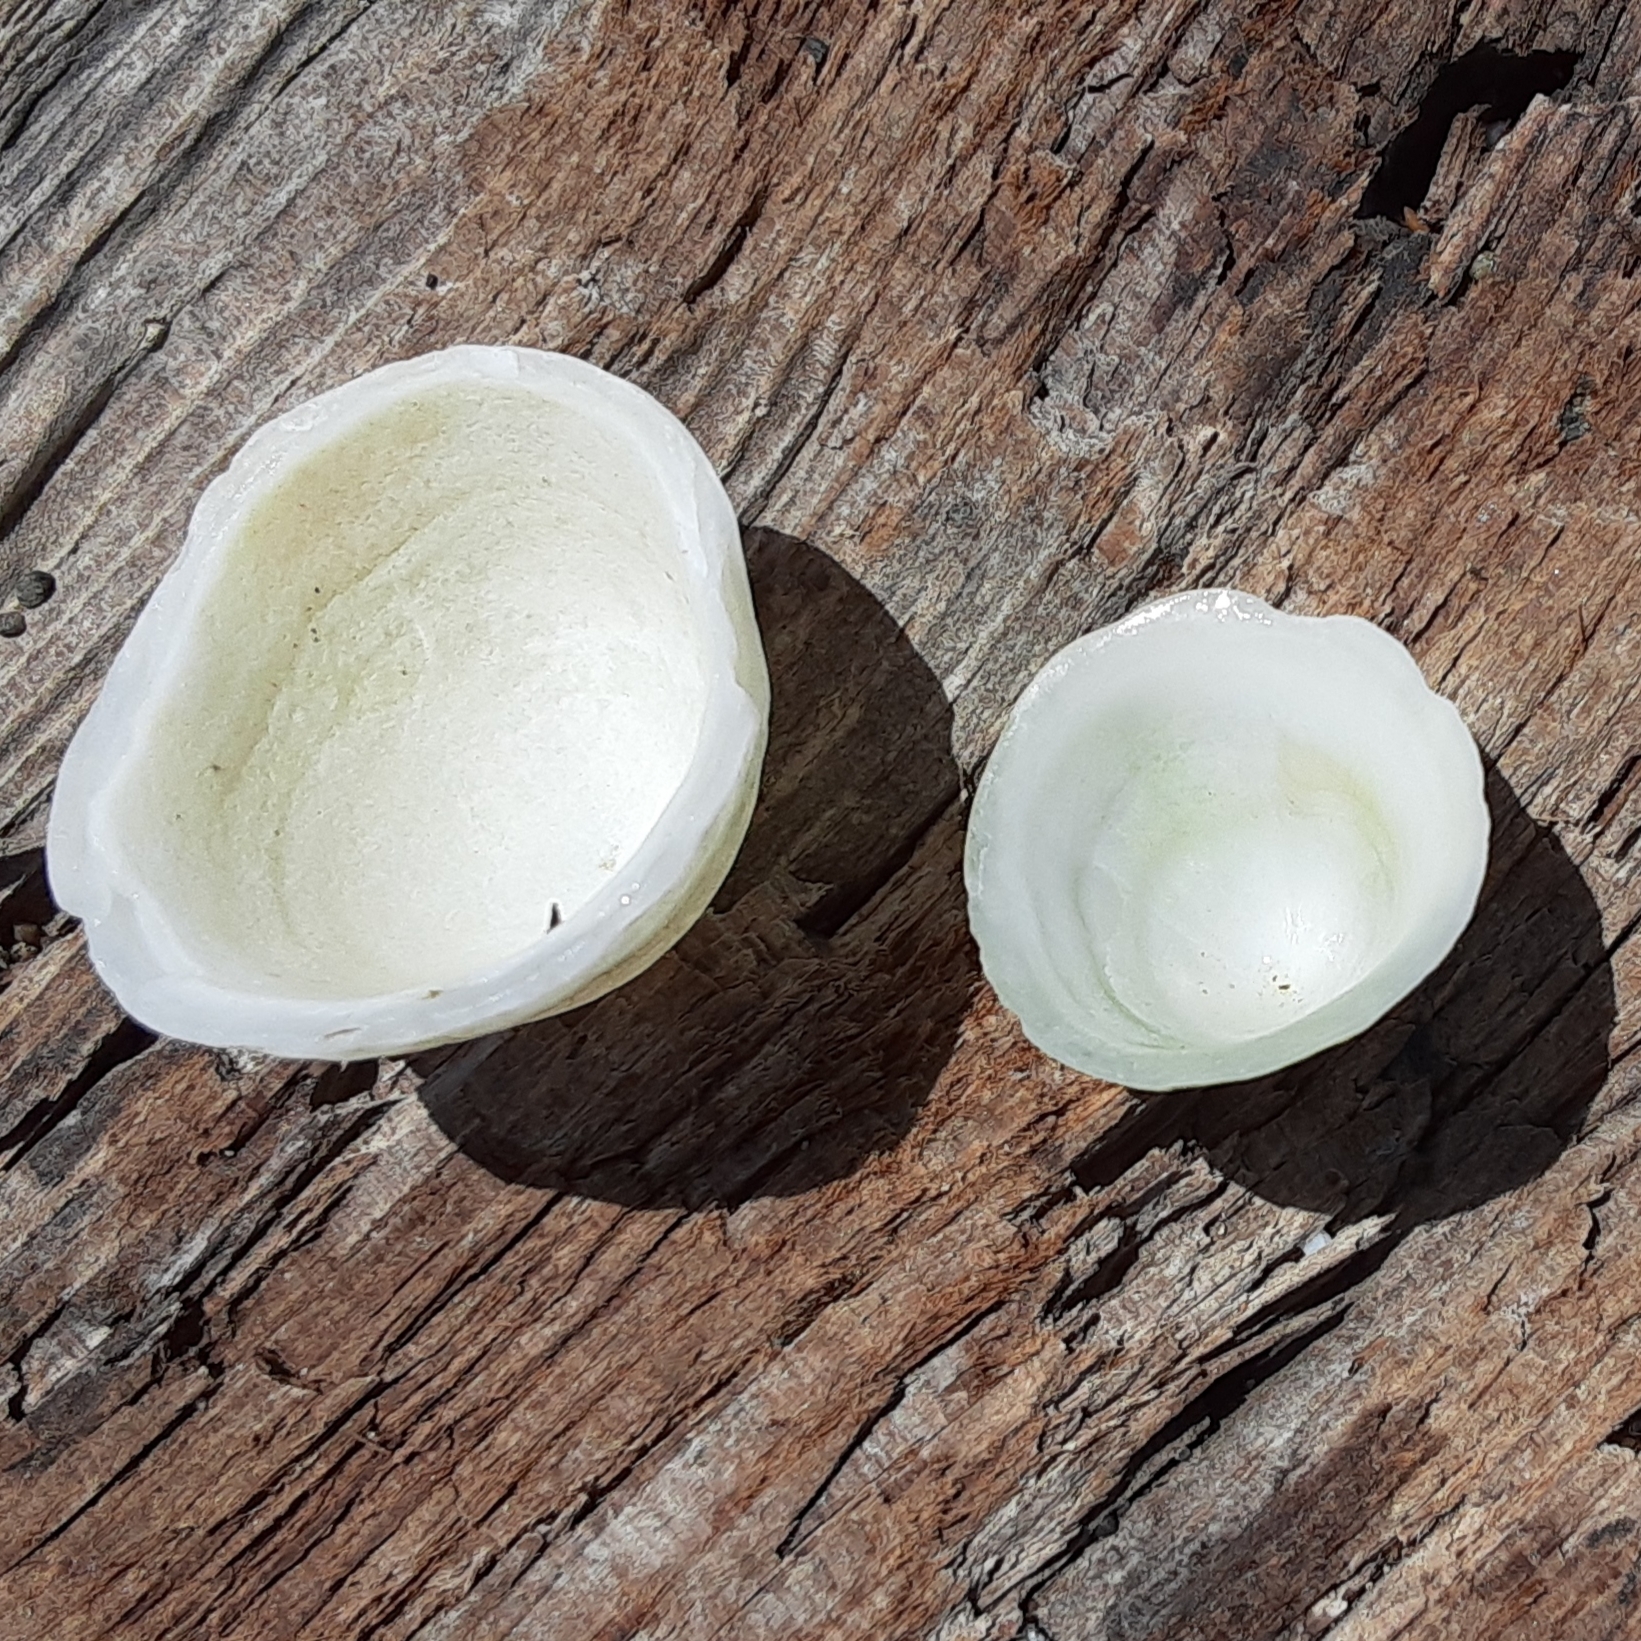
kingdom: Animalia
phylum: Mollusca
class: Gastropoda
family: Acmaeidae
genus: Acmaea
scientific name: Acmaea mitra
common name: Pacific white cap limpet
